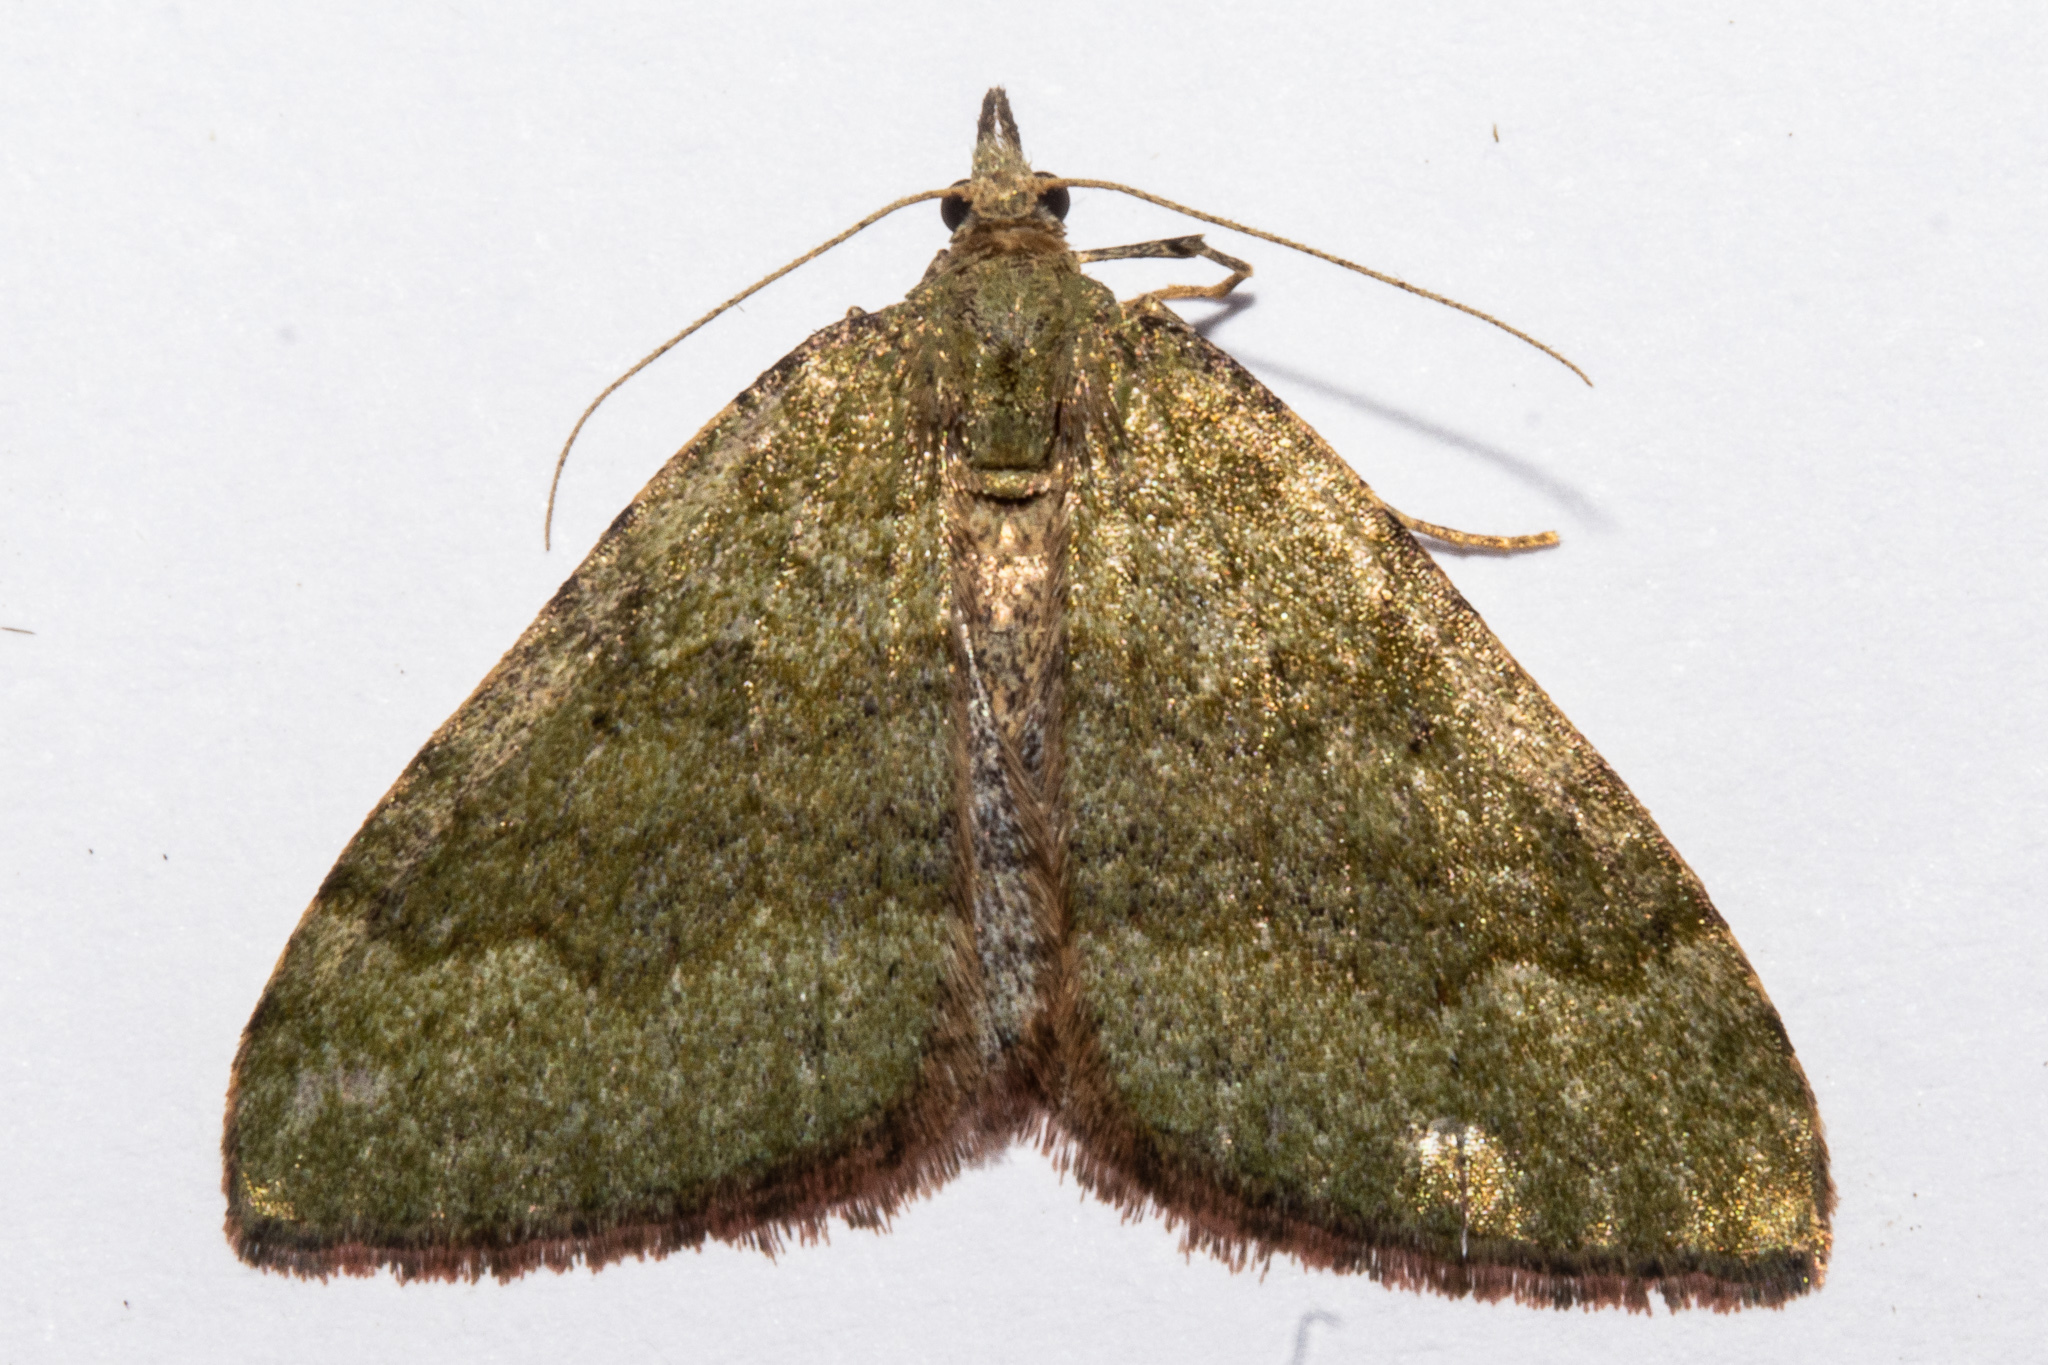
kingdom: Animalia
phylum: Arthropoda
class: Insecta
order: Lepidoptera
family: Geometridae
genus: Epyaxa
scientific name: Epyaxa rosearia
